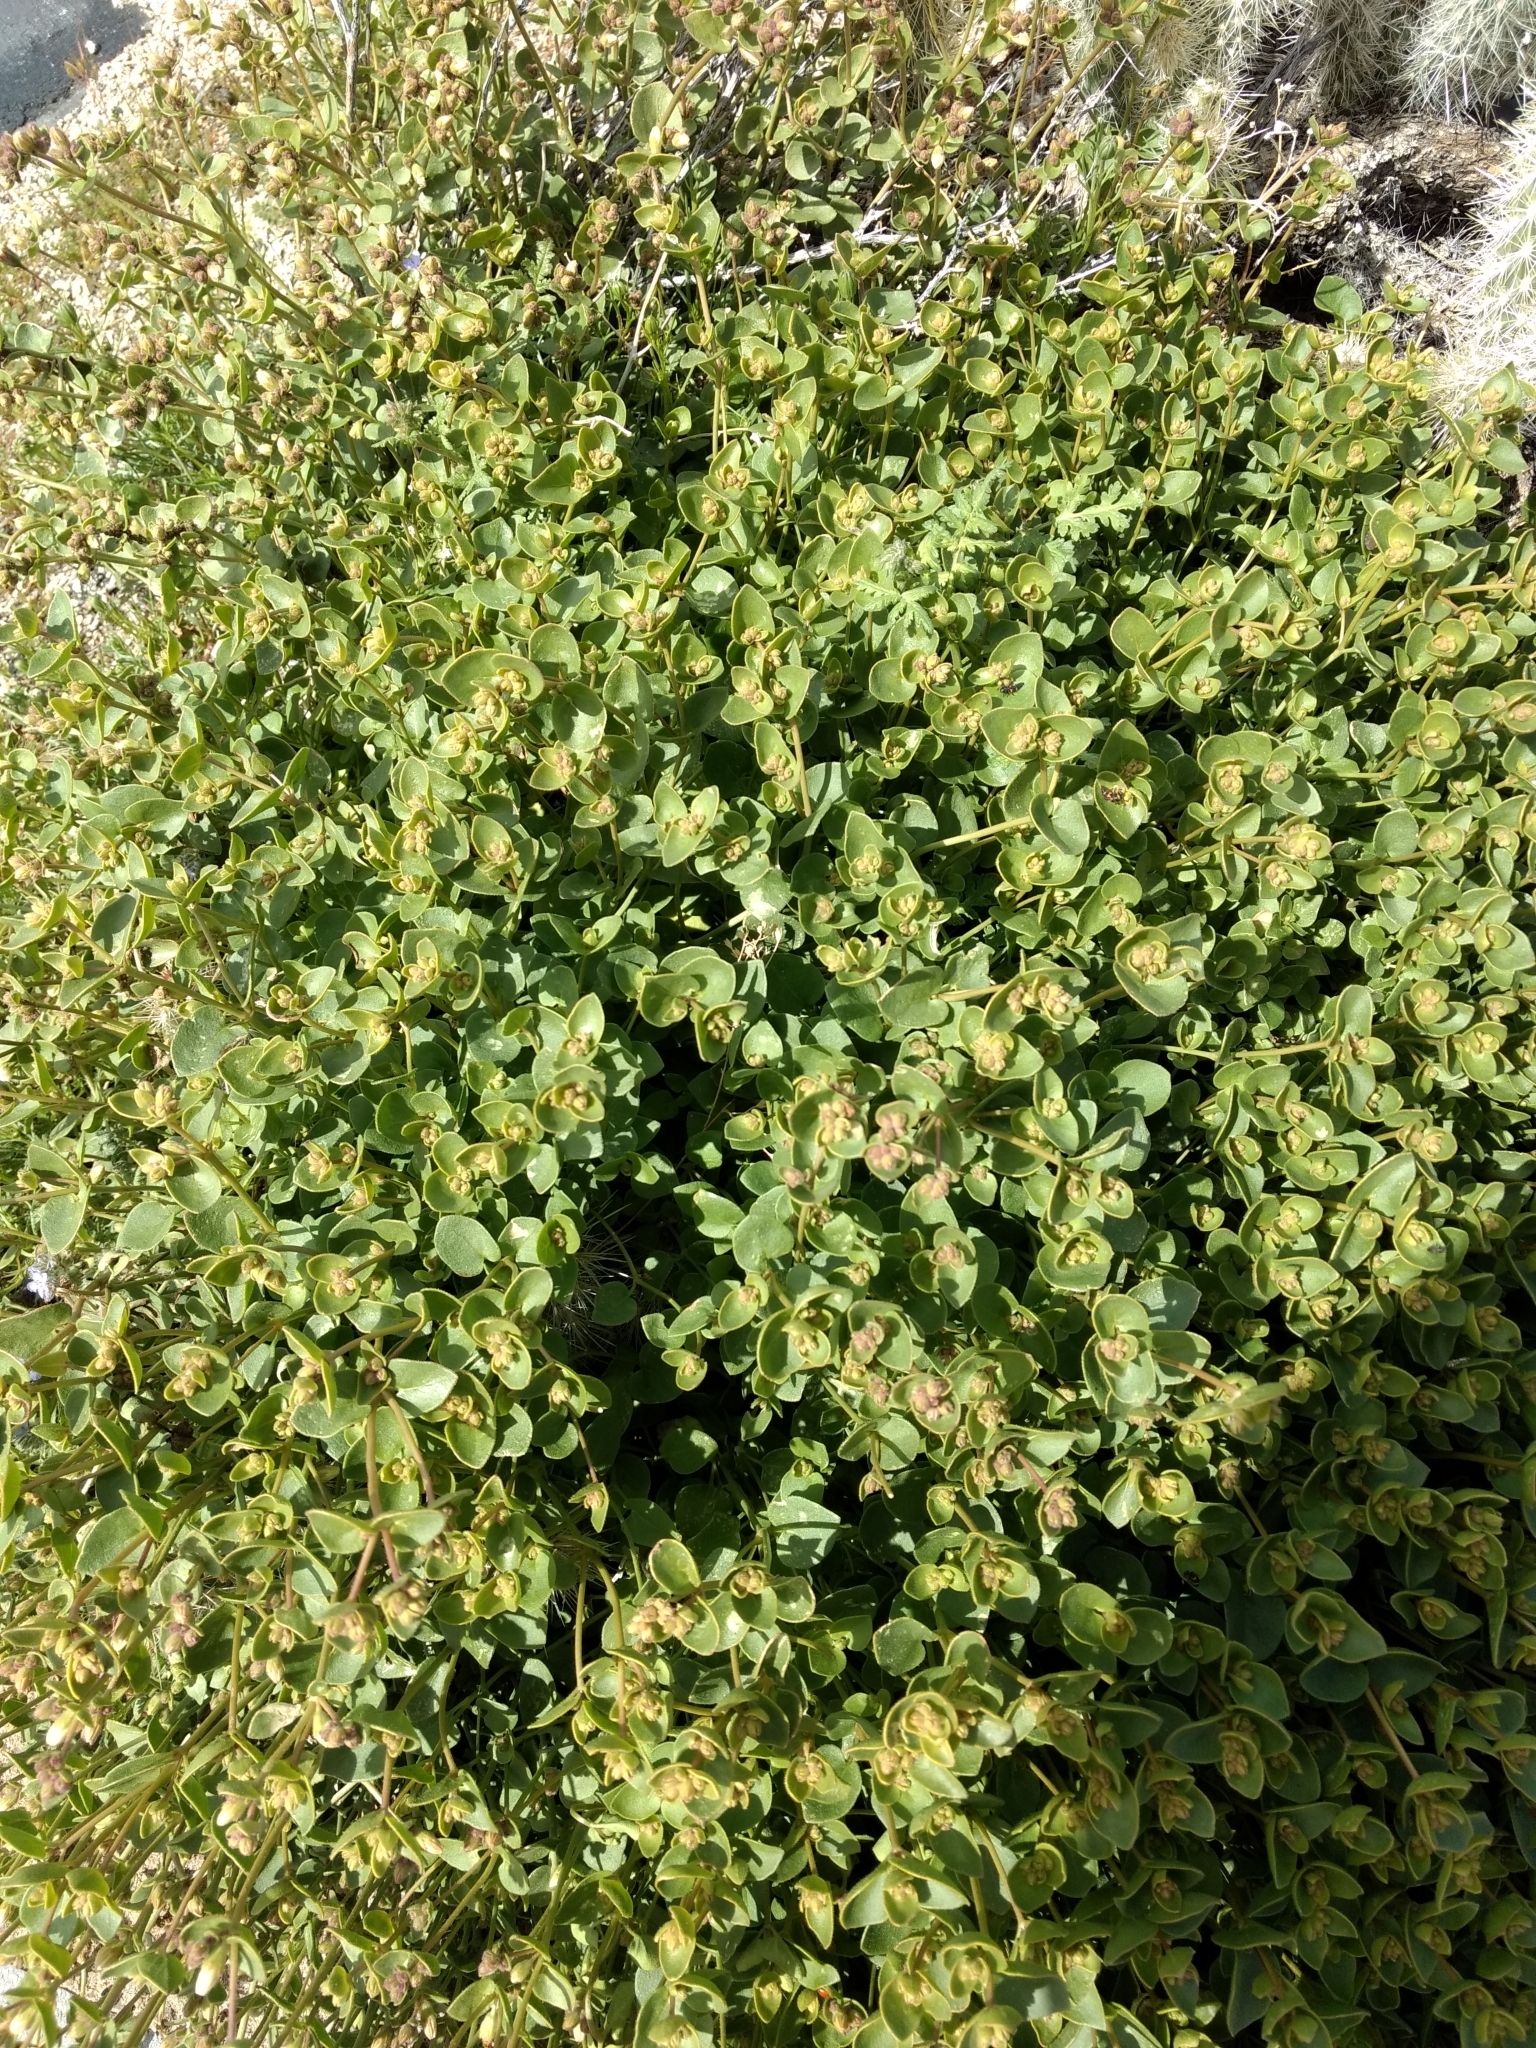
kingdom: Plantae
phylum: Tracheophyta
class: Magnoliopsida
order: Caryophyllales
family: Nyctaginaceae
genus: Mirabilis
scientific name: Mirabilis laevis
